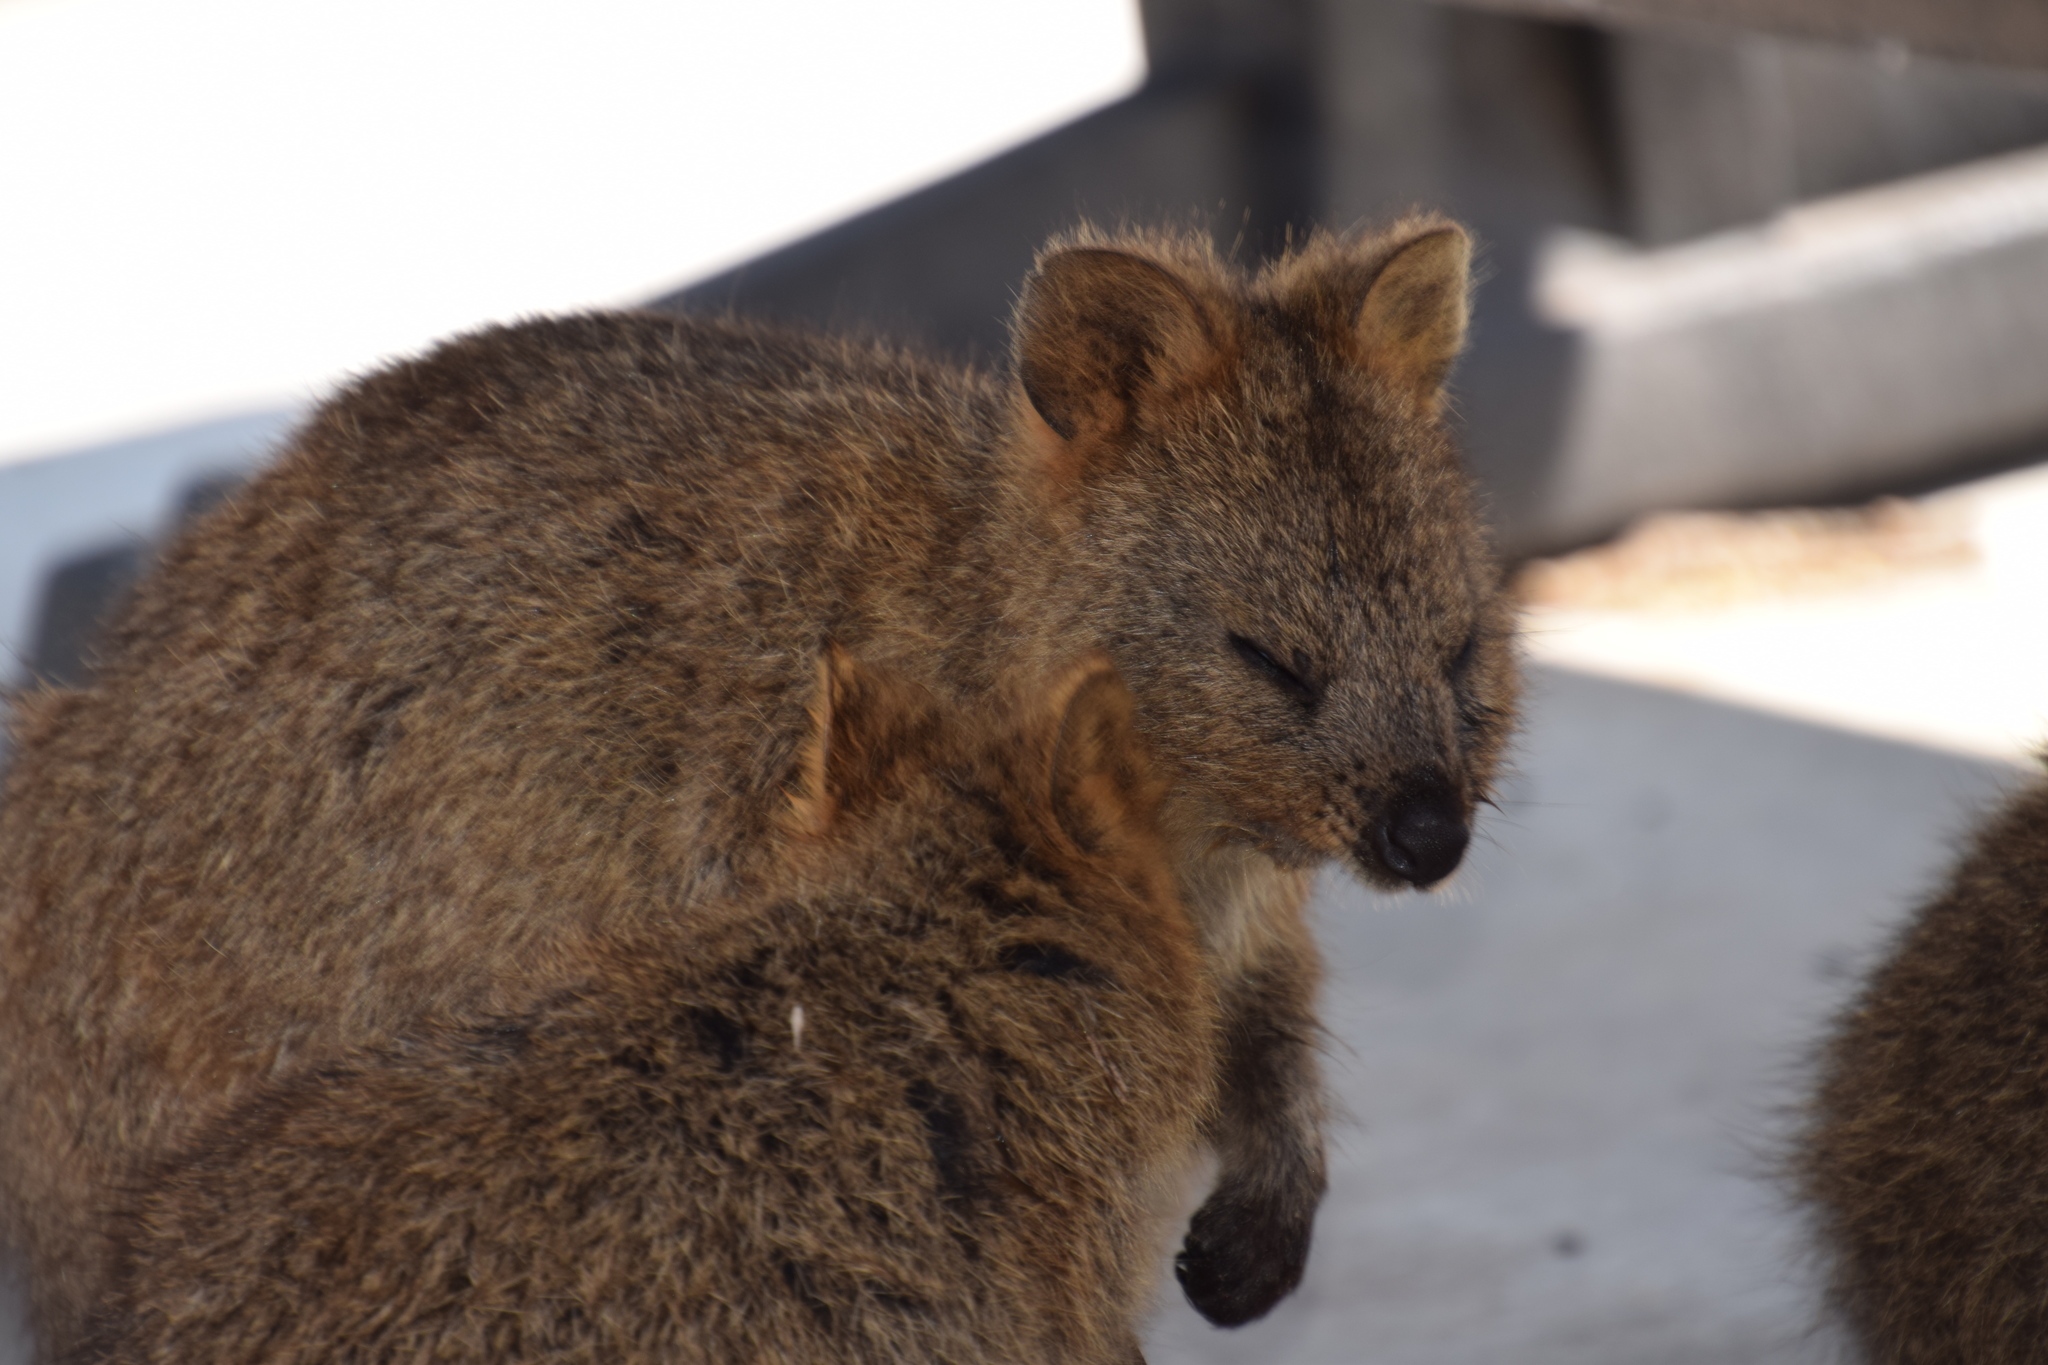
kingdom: Animalia
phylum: Chordata
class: Mammalia
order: Diprotodontia
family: Macropodidae
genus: Setonix
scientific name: Setonix brachyurus
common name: Quokka
